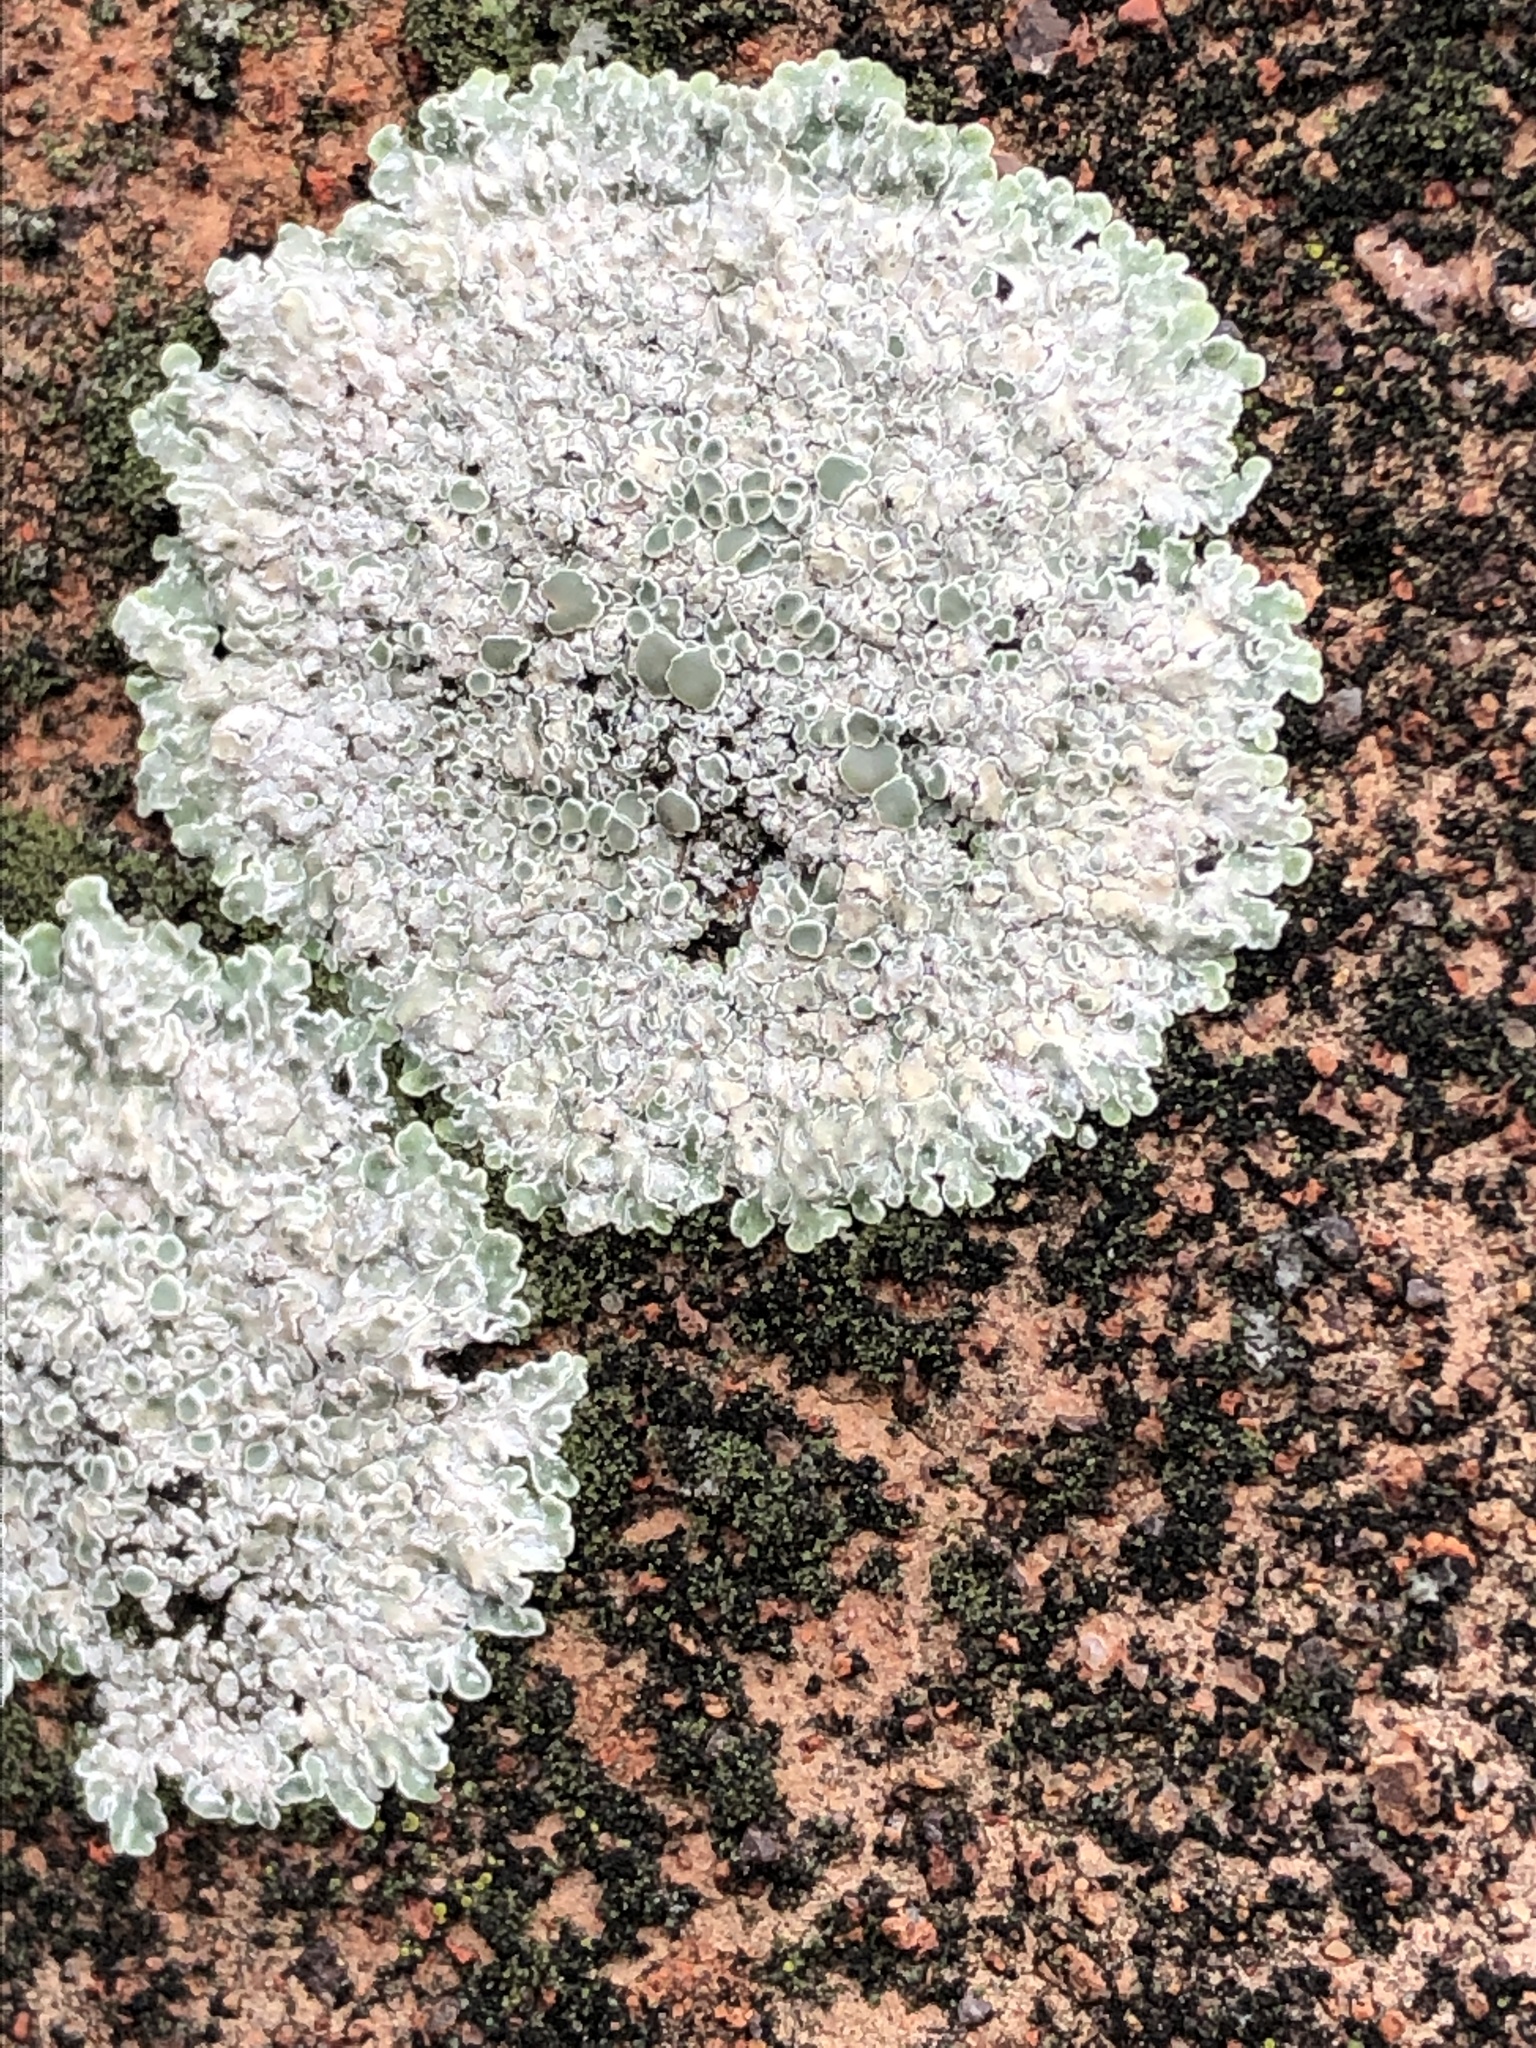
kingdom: Fungi
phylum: Ascomycota
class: Lecanoromycetes
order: Lecanorales
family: Lecanoraceae
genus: Protoparmeliopsis
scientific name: Protoparmeliopsis muralis
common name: Stonewall rim lichen
